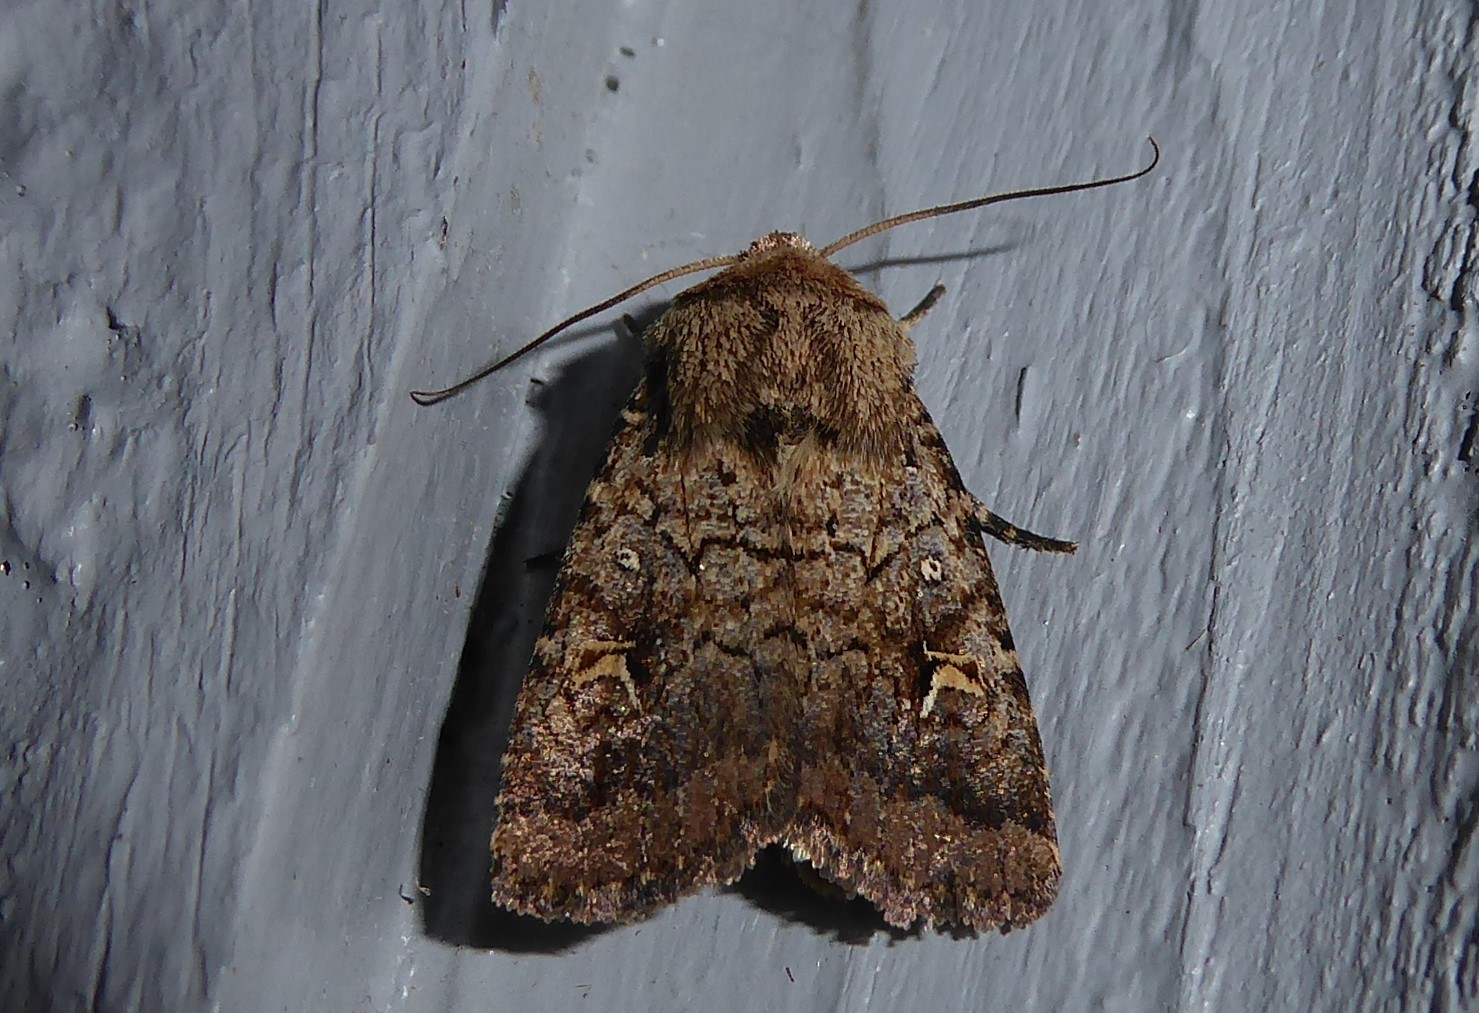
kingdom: Animalia
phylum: Arthropoda
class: Insecta
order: Lepidoptera
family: Noctuidae
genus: Proteuxoa
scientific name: Proteuxoa tetronycha
